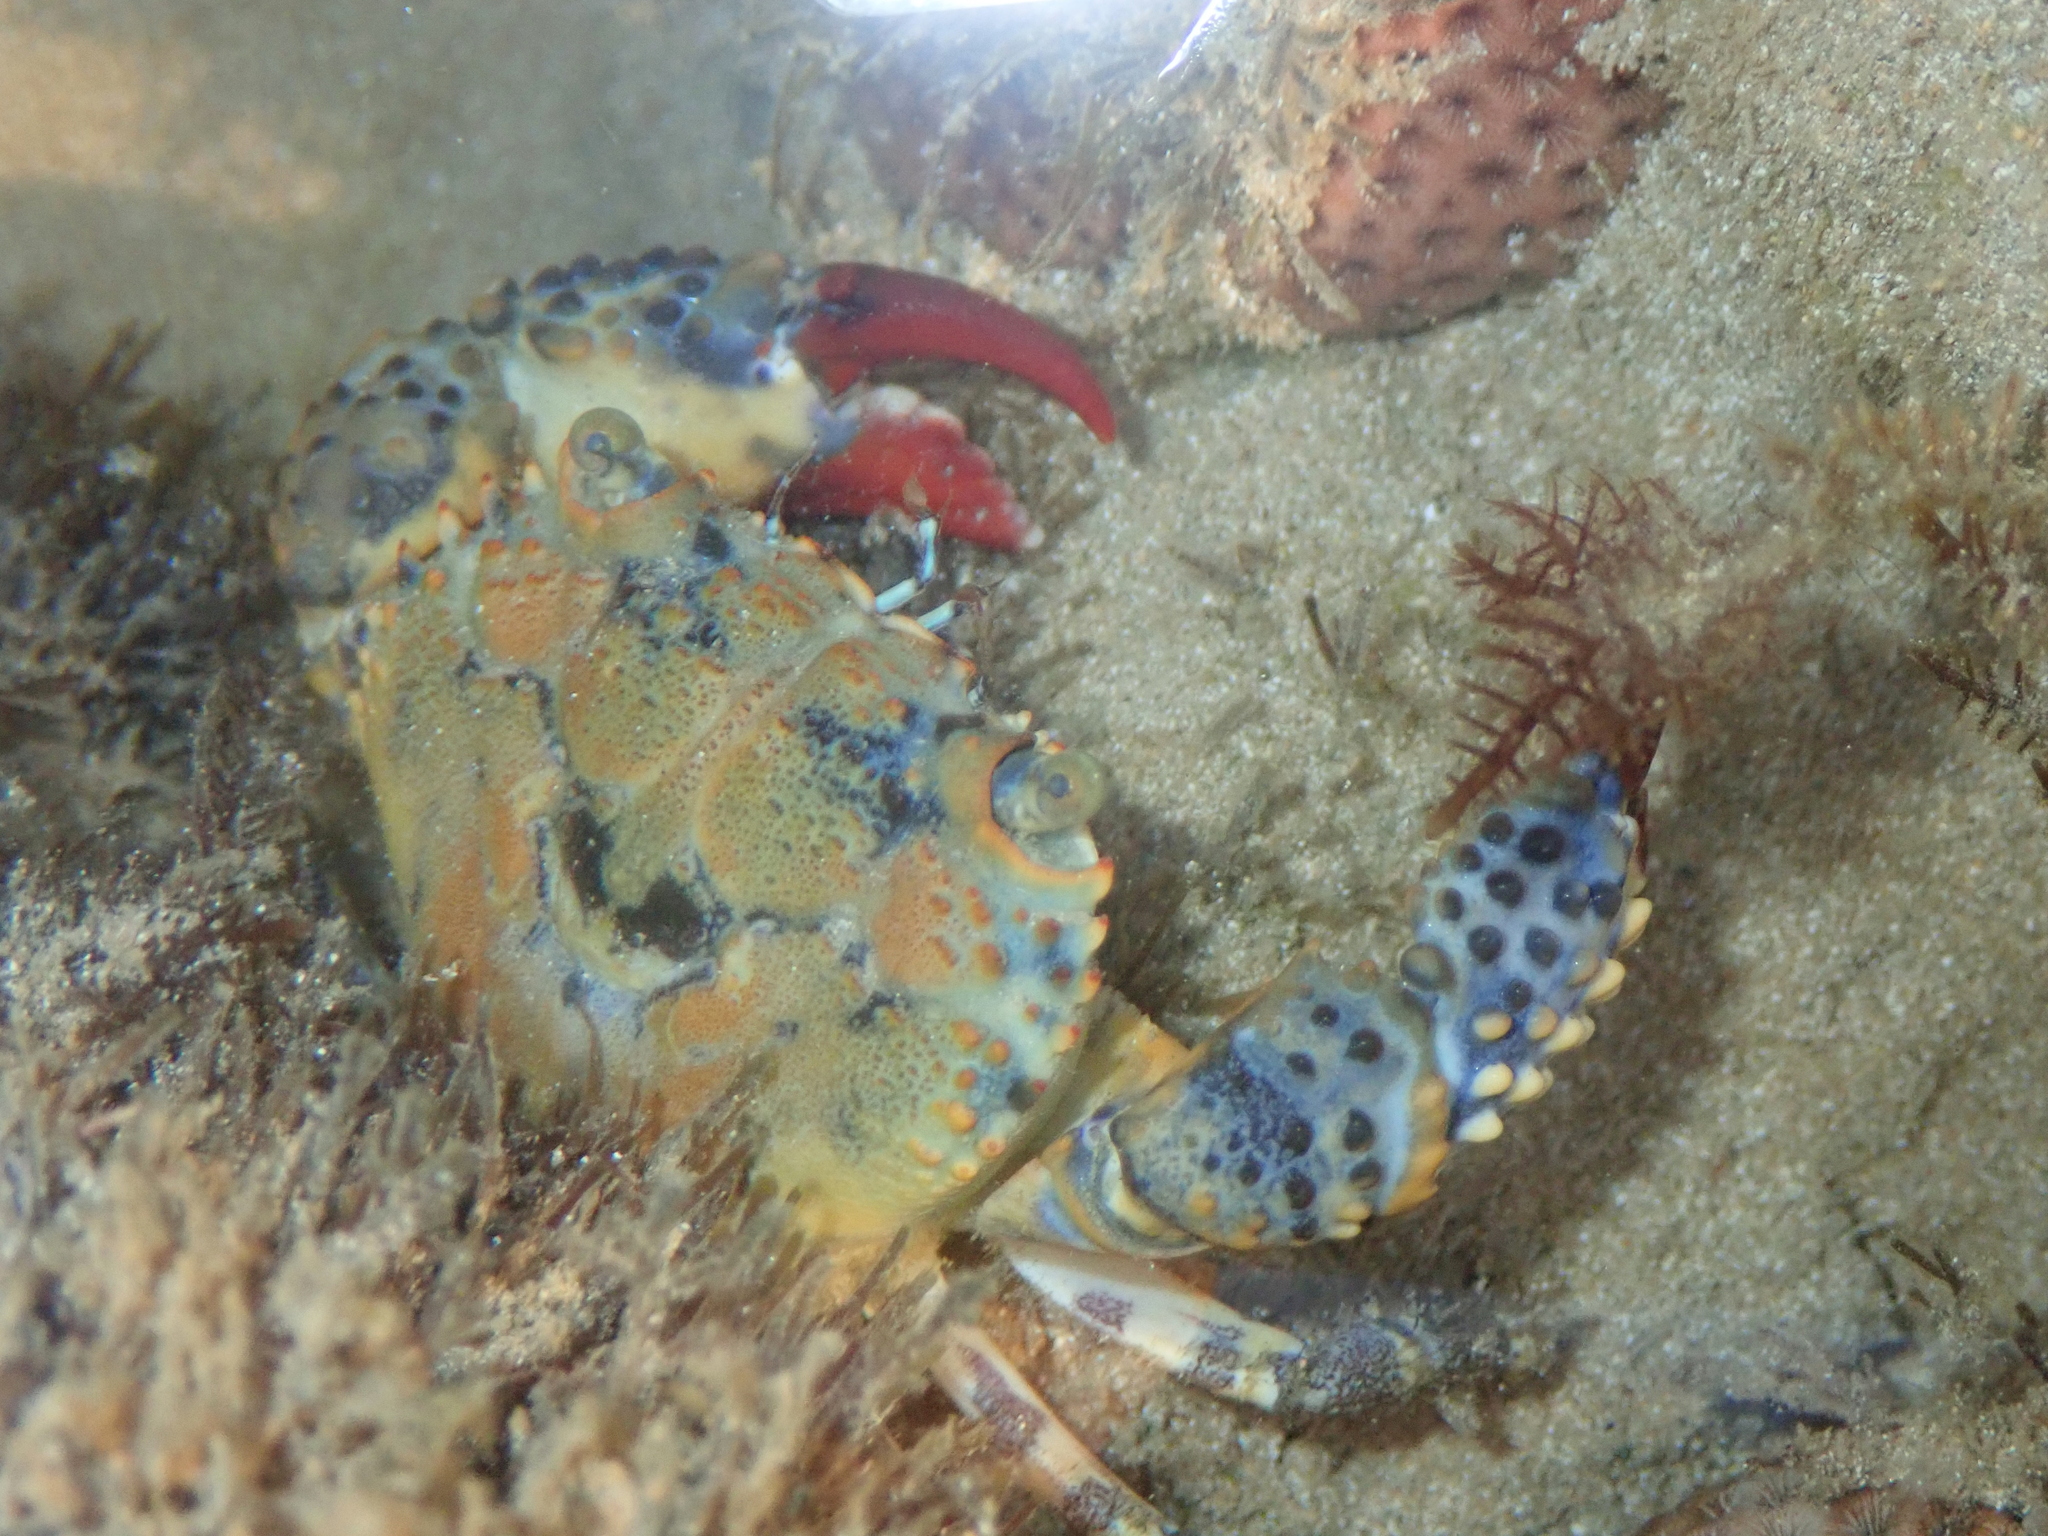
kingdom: Animalia
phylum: Arthropoda
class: Malacostraca
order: Decapoda
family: Eriphiidae
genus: Eriphia
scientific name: Eriphia gonagra
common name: Calico crab
